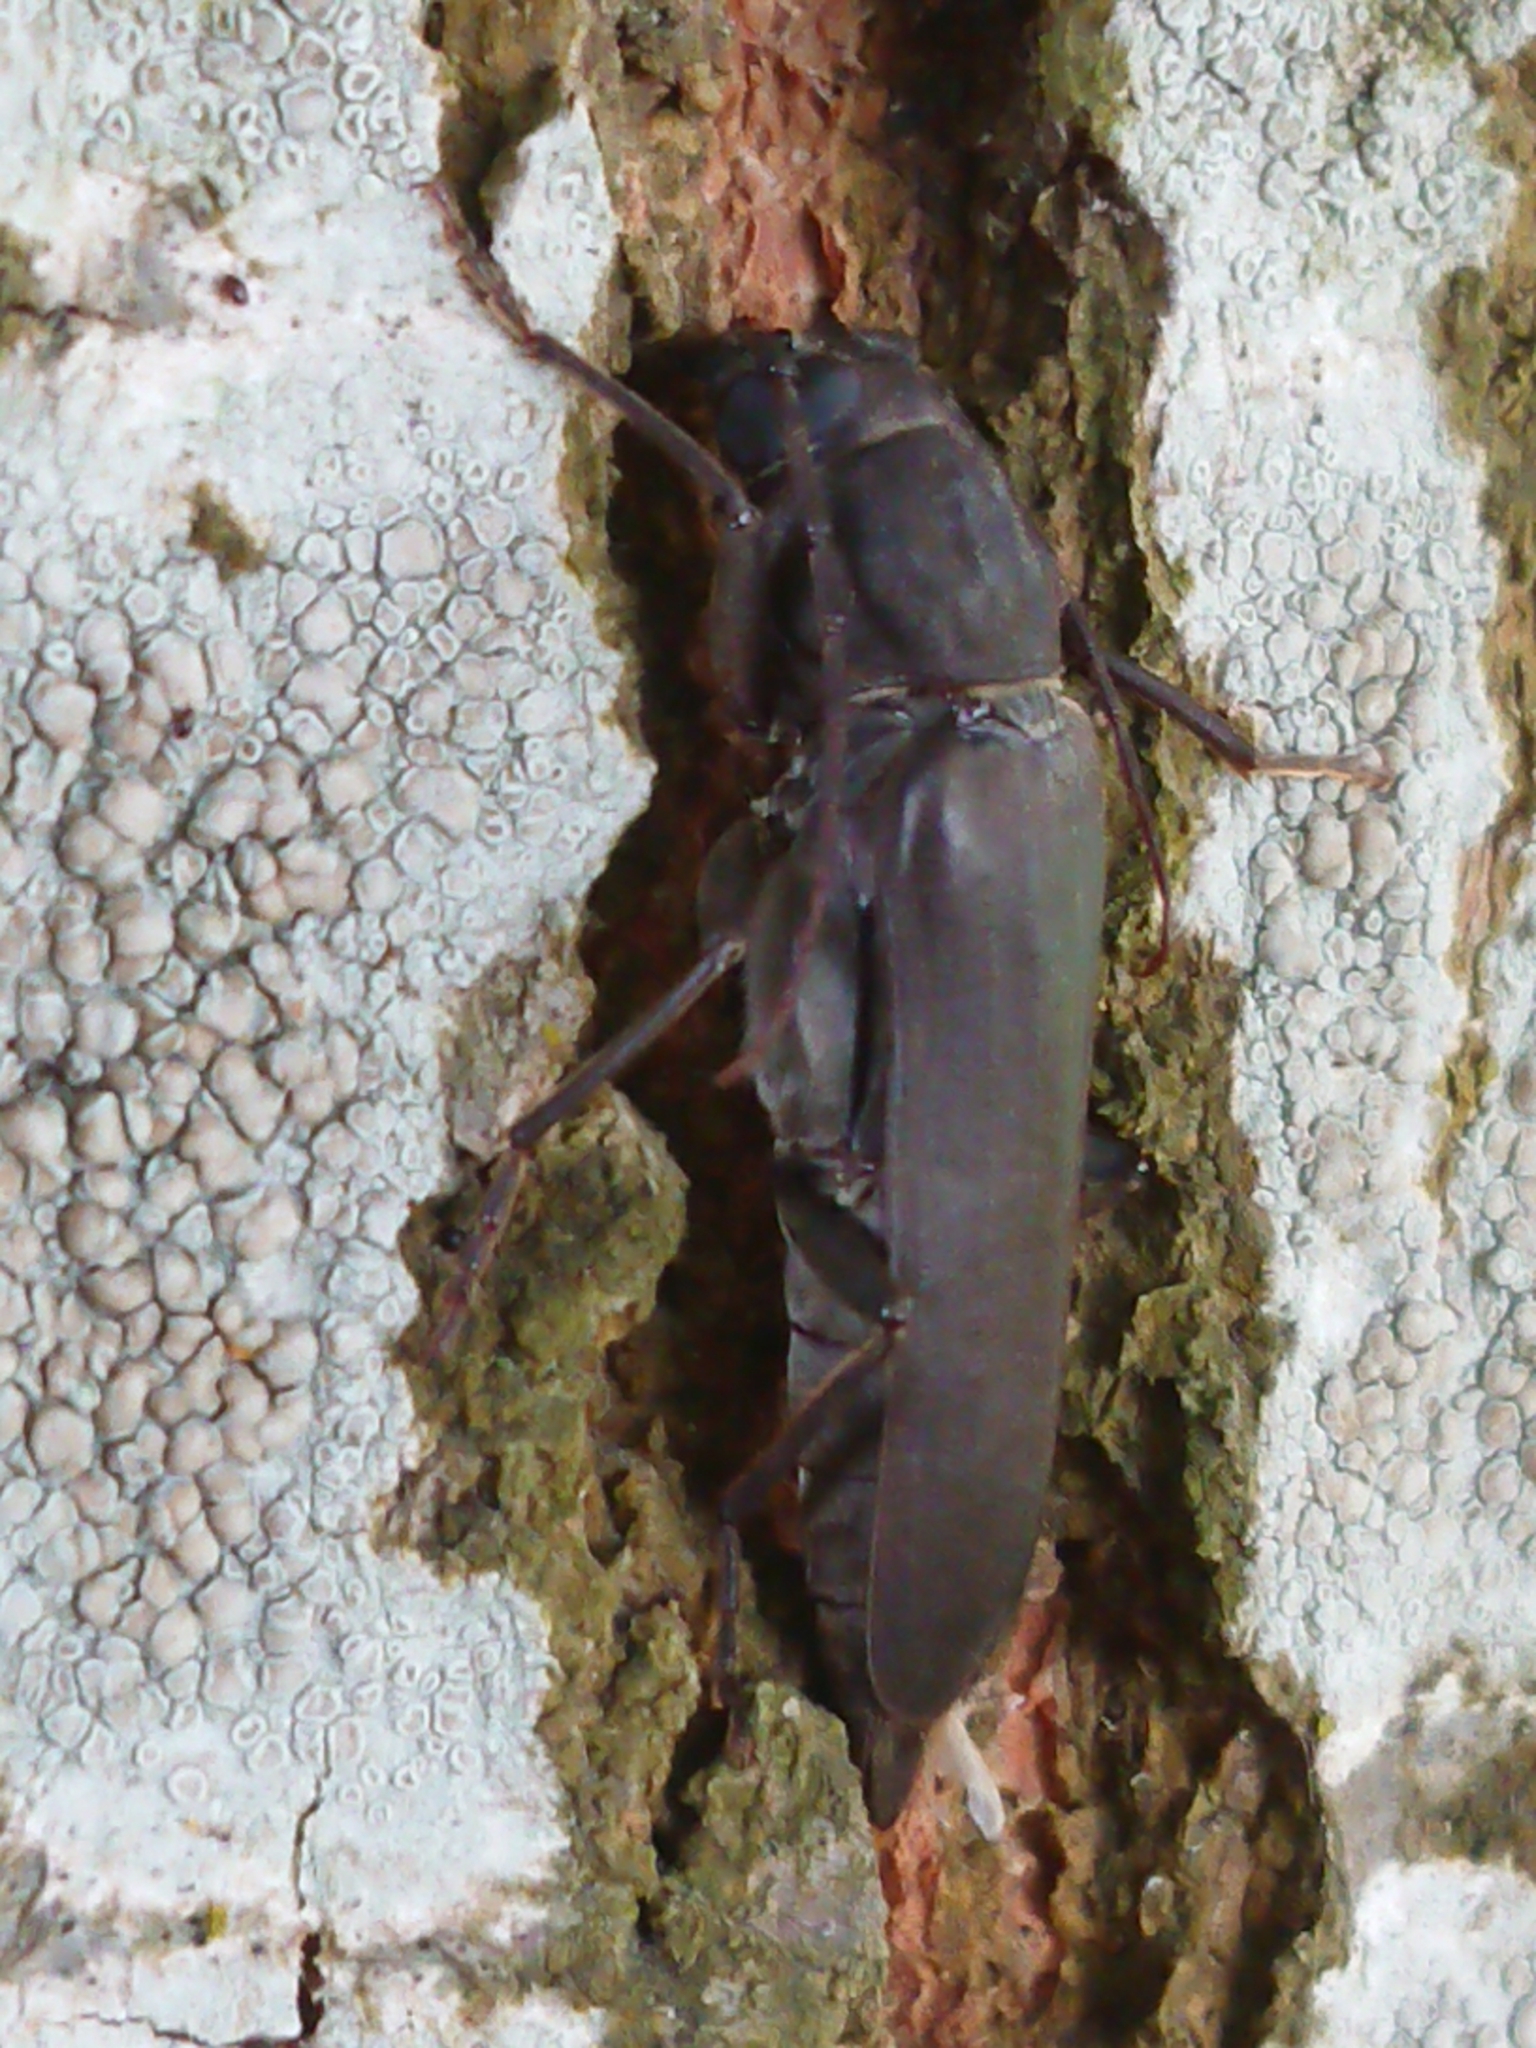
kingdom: Animalia
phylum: Arthropoda
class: Insecta
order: Coleoptera
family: Cerambycidae
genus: Arhopalus
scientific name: Arhopalus ferus
